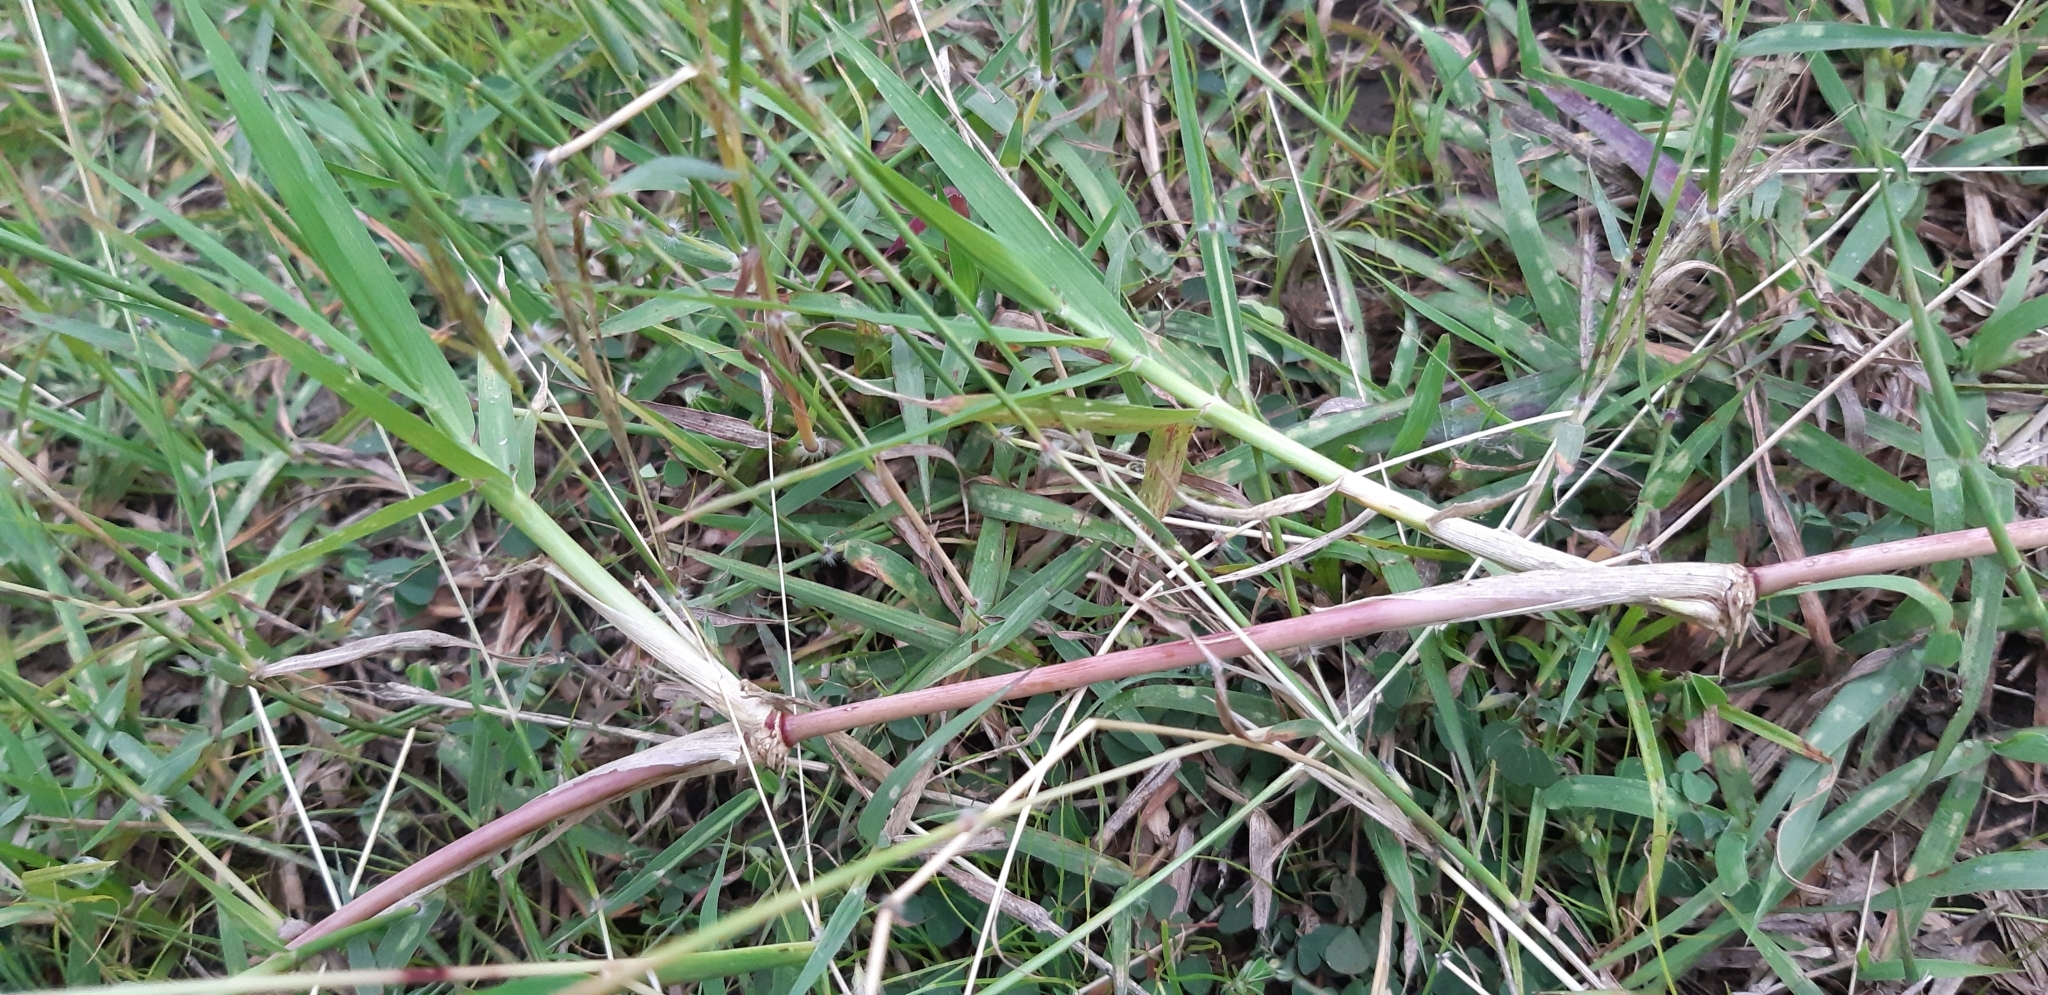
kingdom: Plantae
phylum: Tracheophyta
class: Liliopsida
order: Poales
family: Poaceae
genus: Cynodon
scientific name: Cynodon dactylon
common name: Bermuda grass
